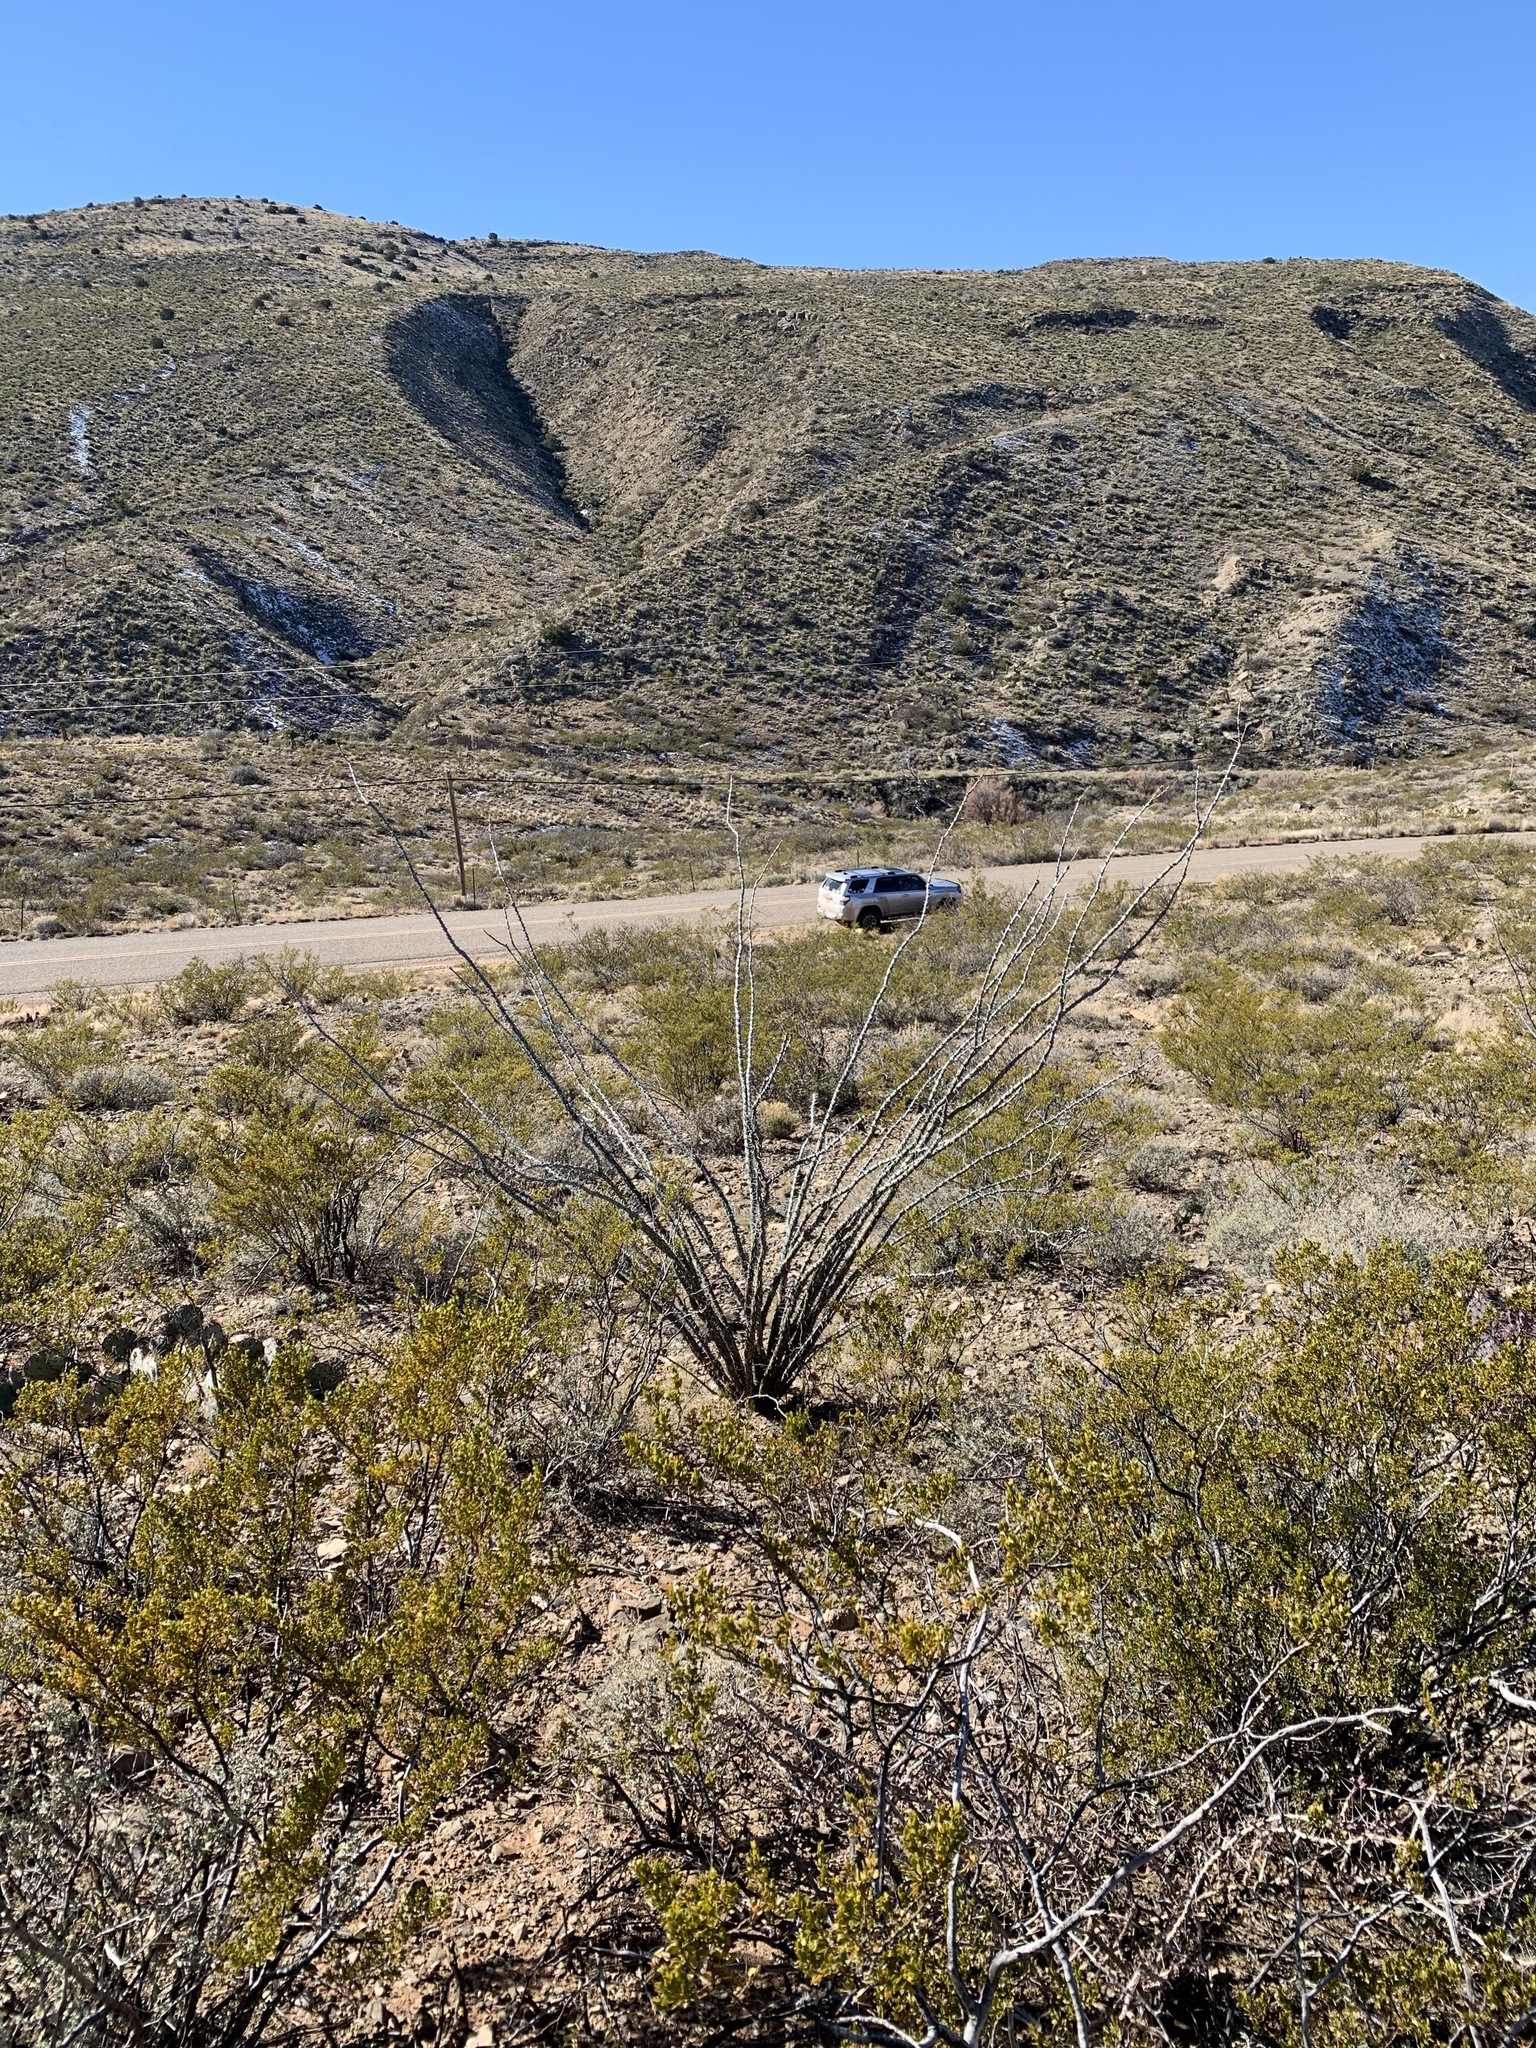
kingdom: Plantae
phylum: Tracheophyta
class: Magnoliopsida
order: Ericales
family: Fouquieriaceae
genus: Fouquieria
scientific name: Fouquieria splendens
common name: Vine-cactus
